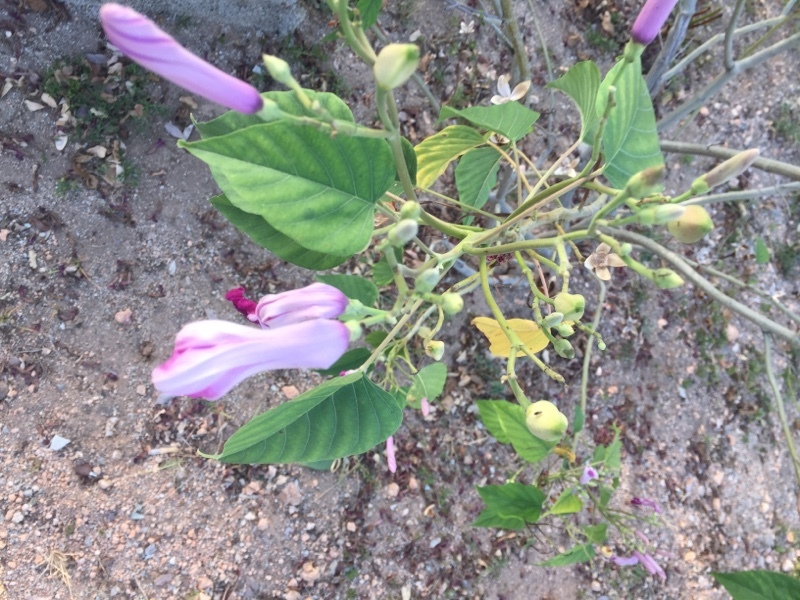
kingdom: Plantae
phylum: Tracheophyta
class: Magnoliopsida
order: Solanales
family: Convolvulaceae
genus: Ipomoea
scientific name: Ipomoea carnea
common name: Morning-glory
